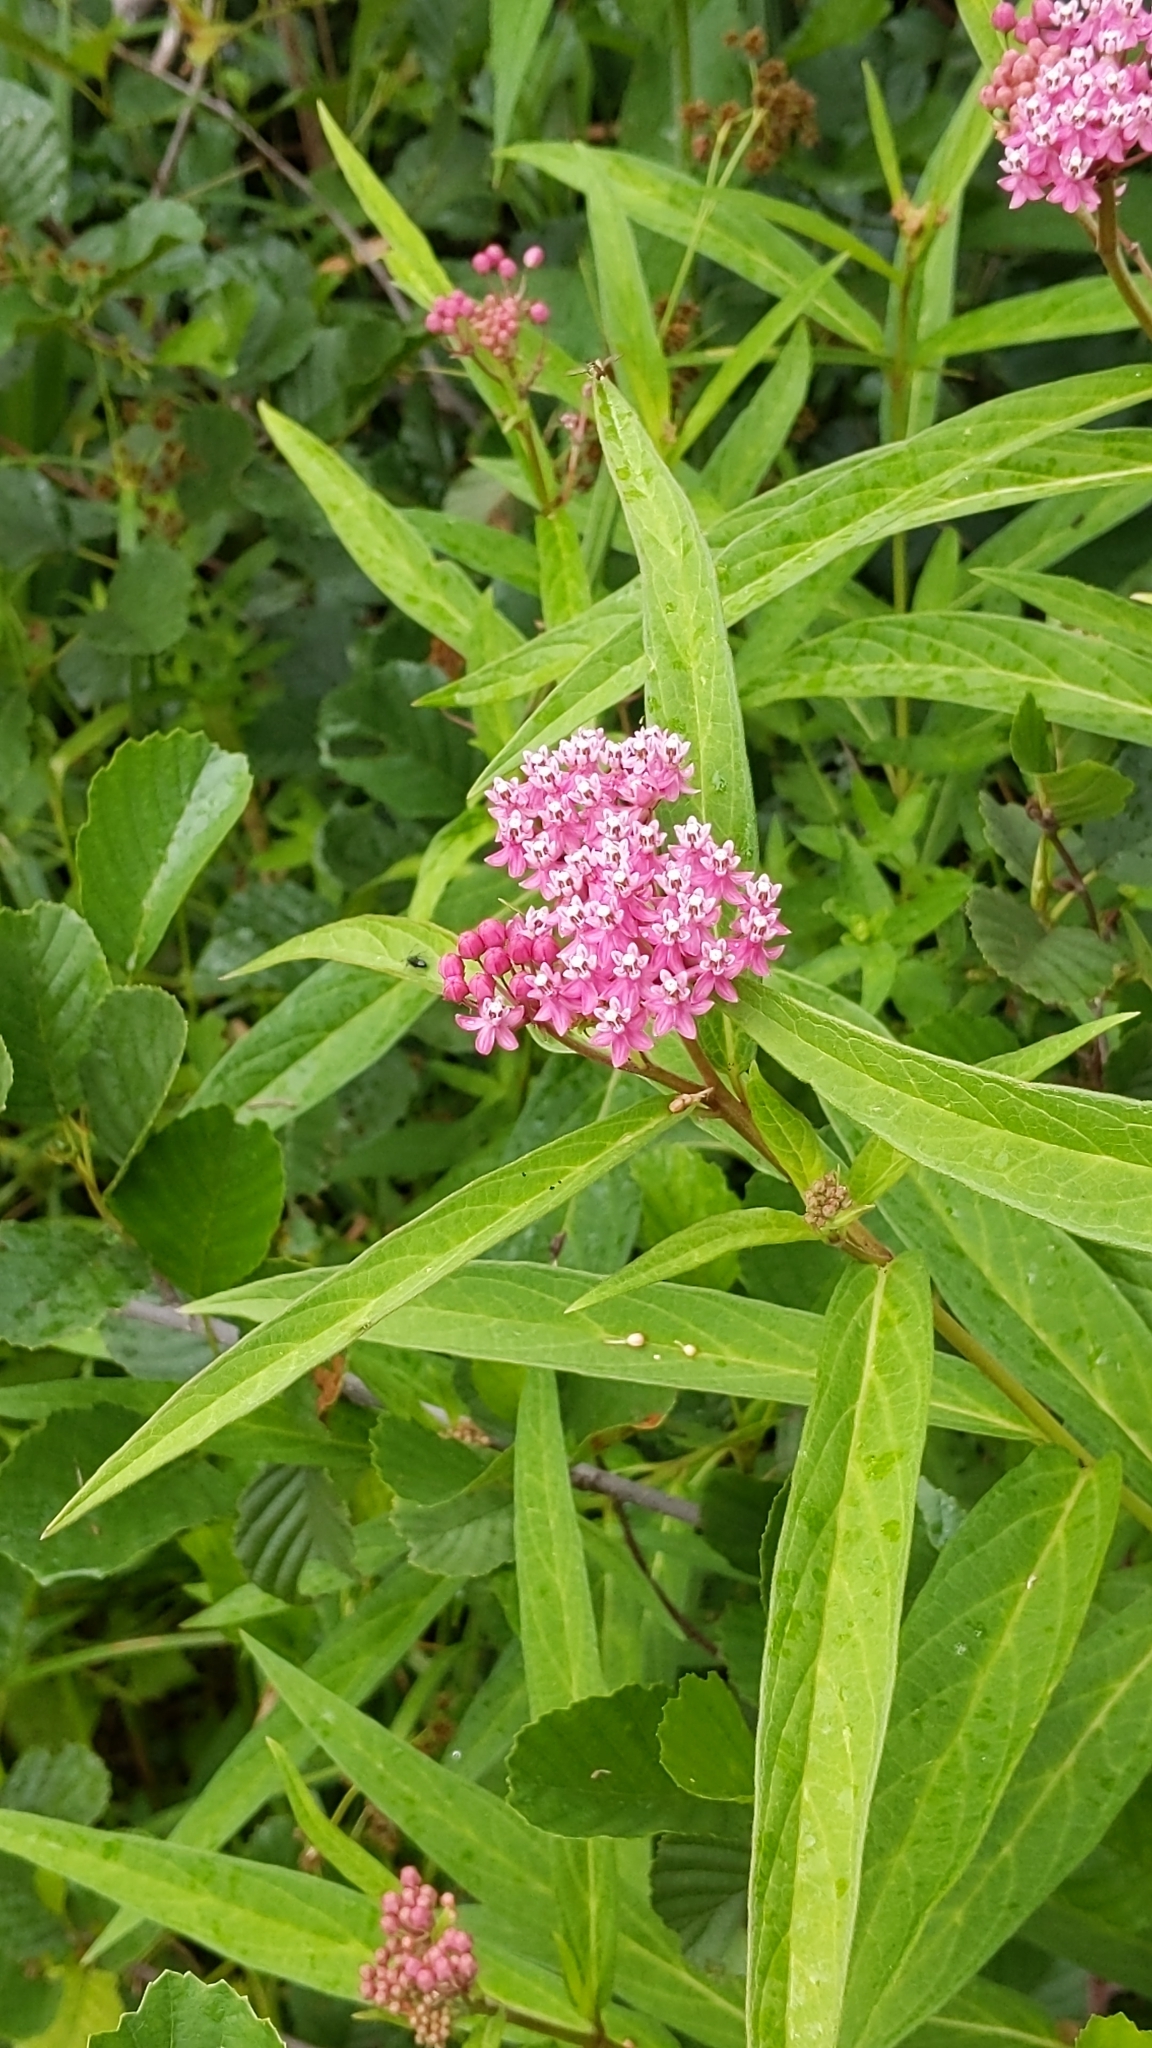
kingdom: Plantae
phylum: Tracheophyta
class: Magnoliopsida
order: Gentianales
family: Apocynaceae
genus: Asclepias
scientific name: Asclepias incarnata
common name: Swamp milkweed
